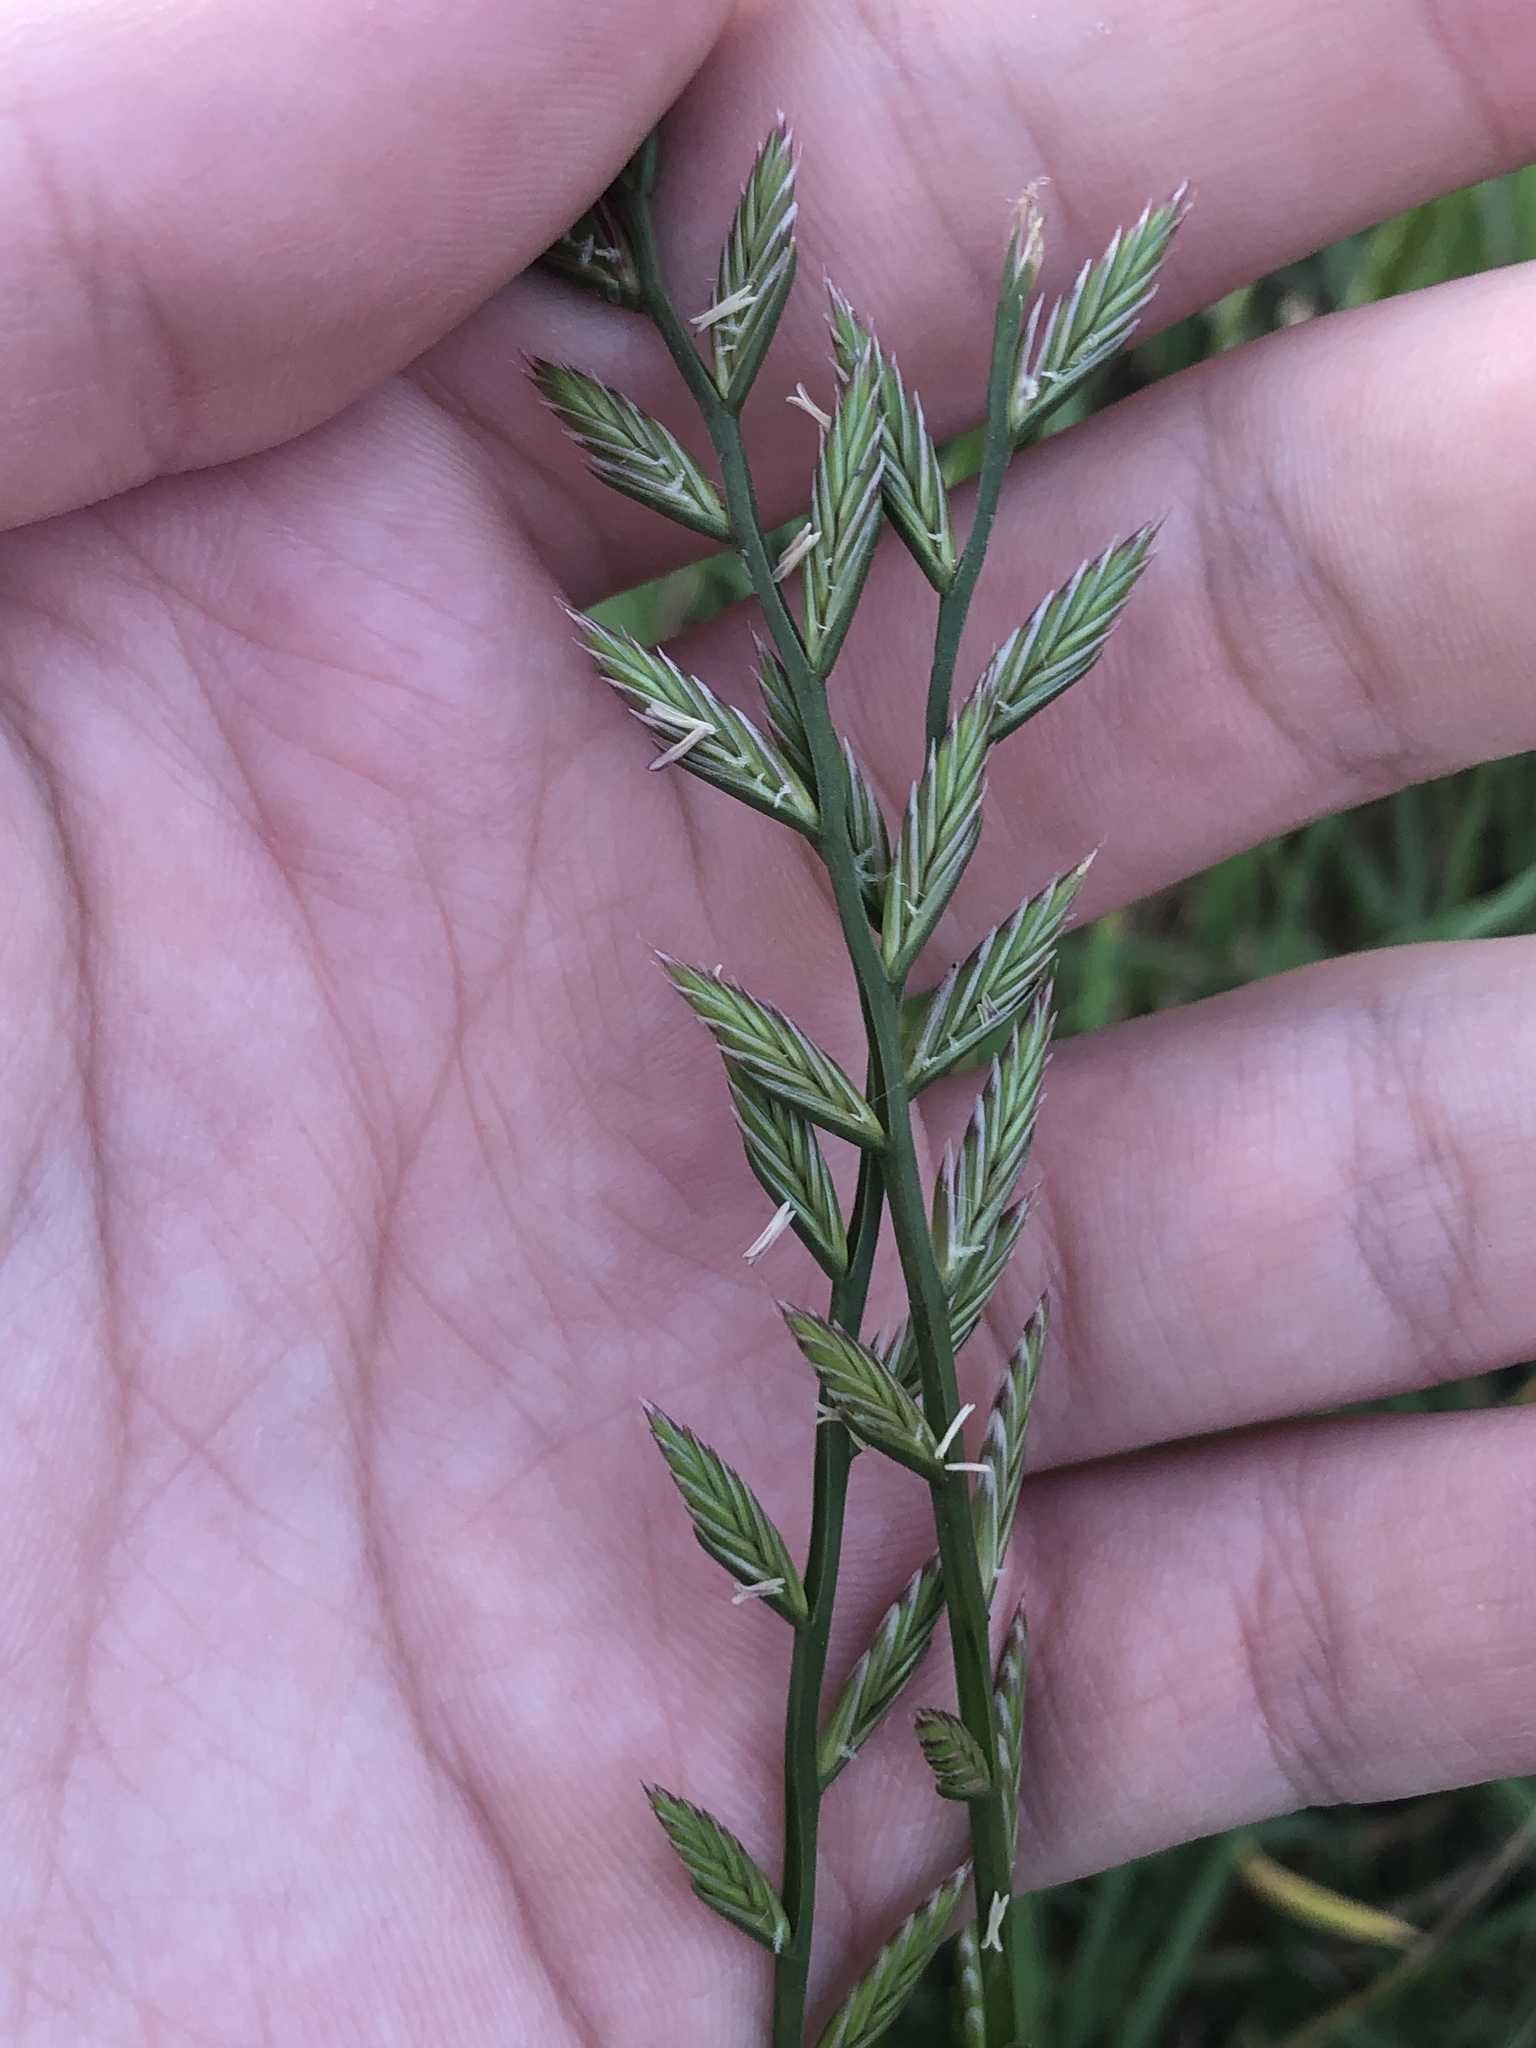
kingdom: Plantae
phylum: Tracheophyta
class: Liliopsida
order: Poales
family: Poaceae
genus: Lolium
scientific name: Lolium perenne
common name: Perennial ryegrass
